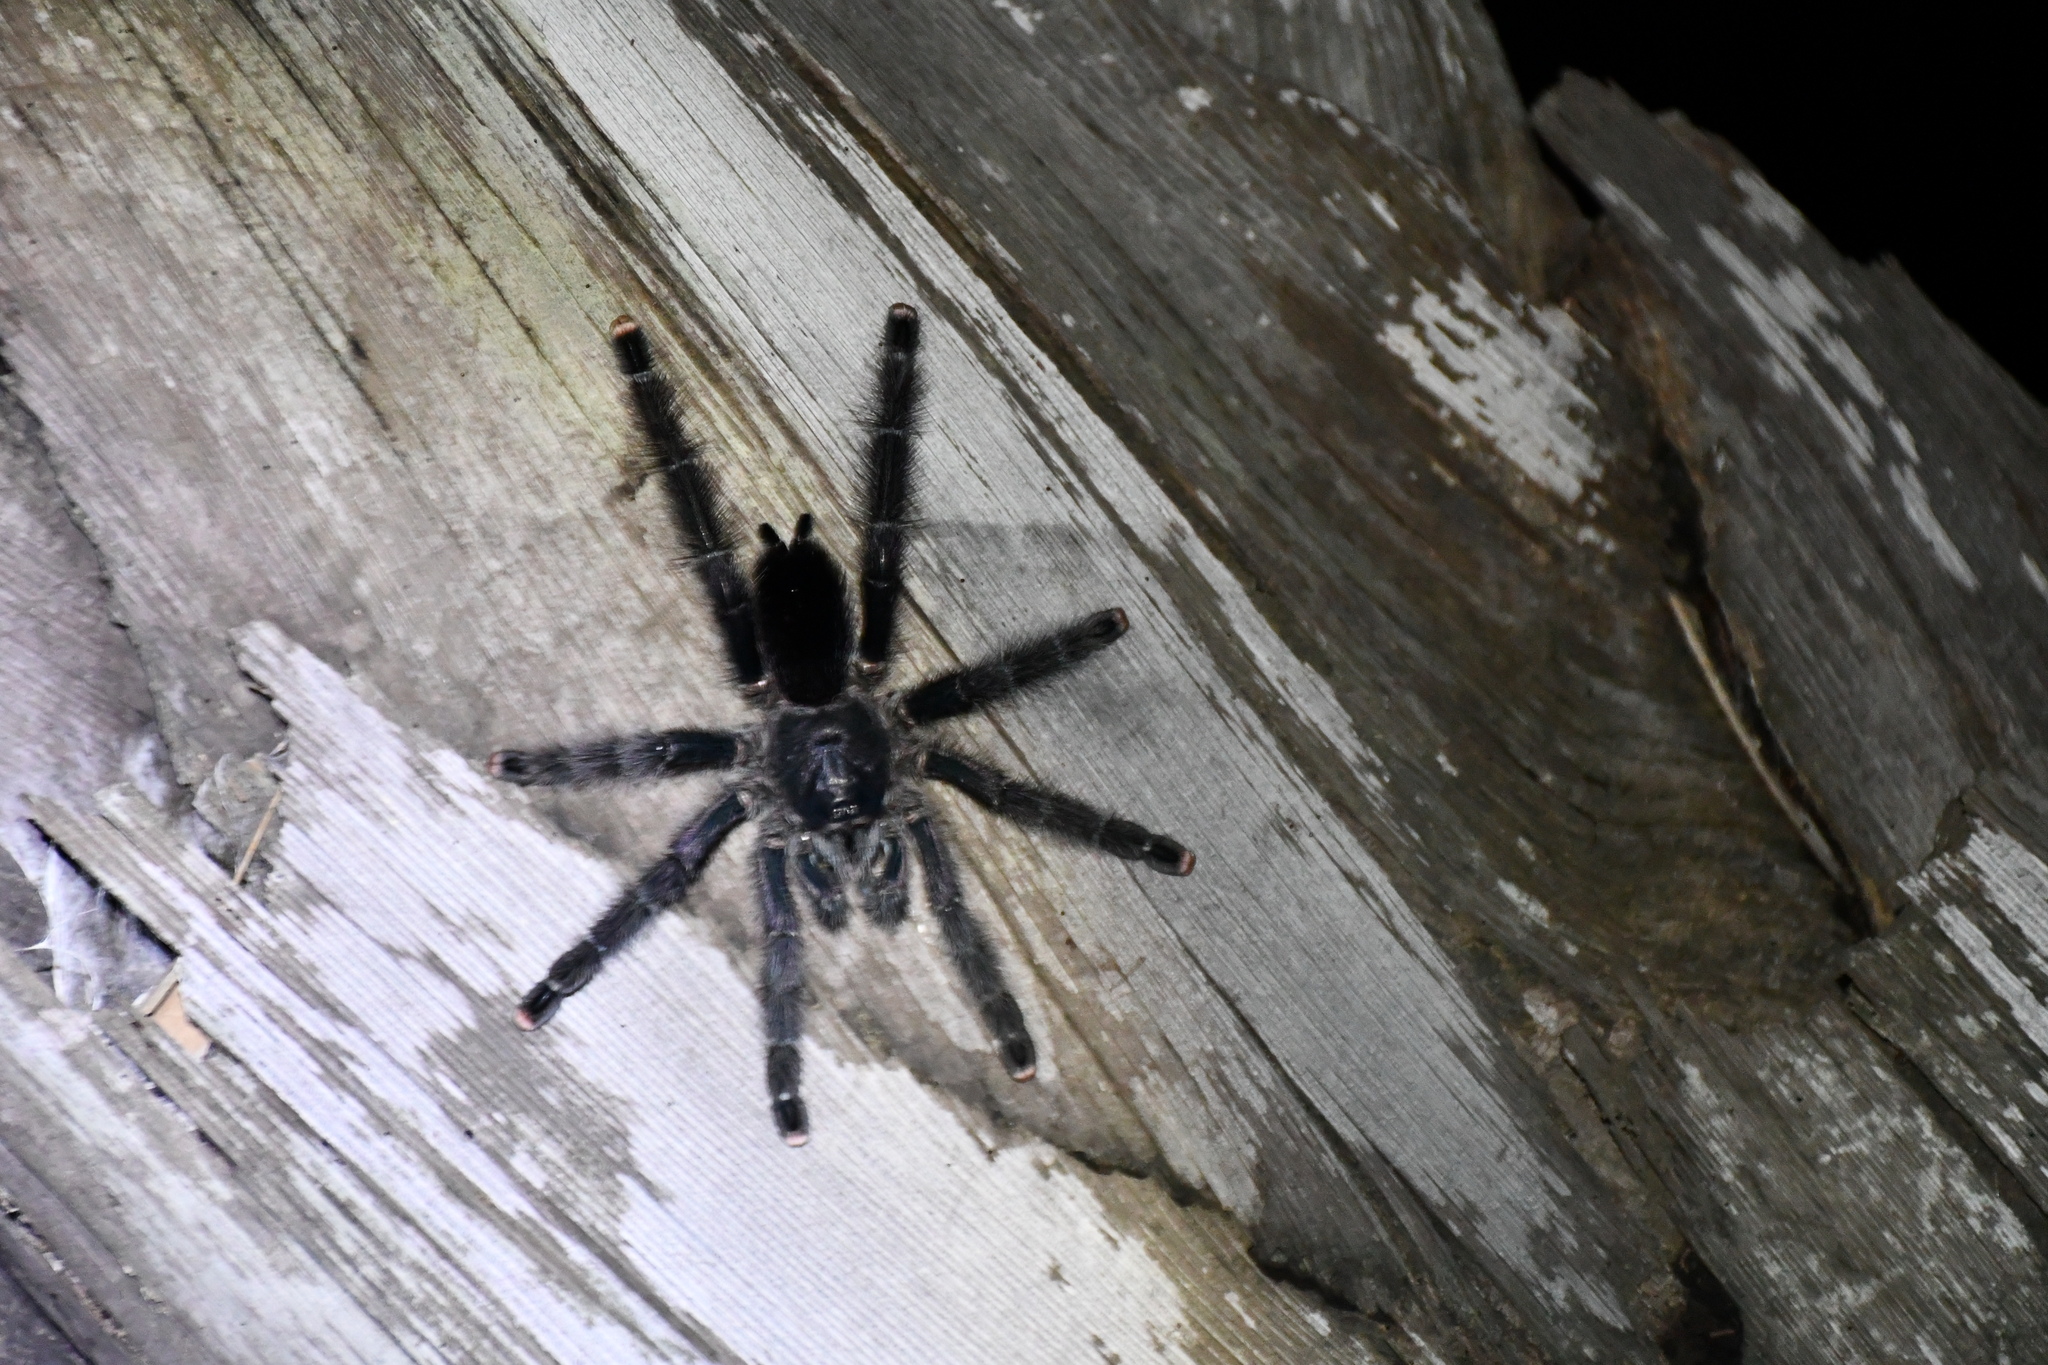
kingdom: Animalia
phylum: Arthropoda
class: Arachnida
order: Araneae
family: Theraphosidae
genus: Avicularia
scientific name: Avicularia avicularia
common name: Tarantula spiders
